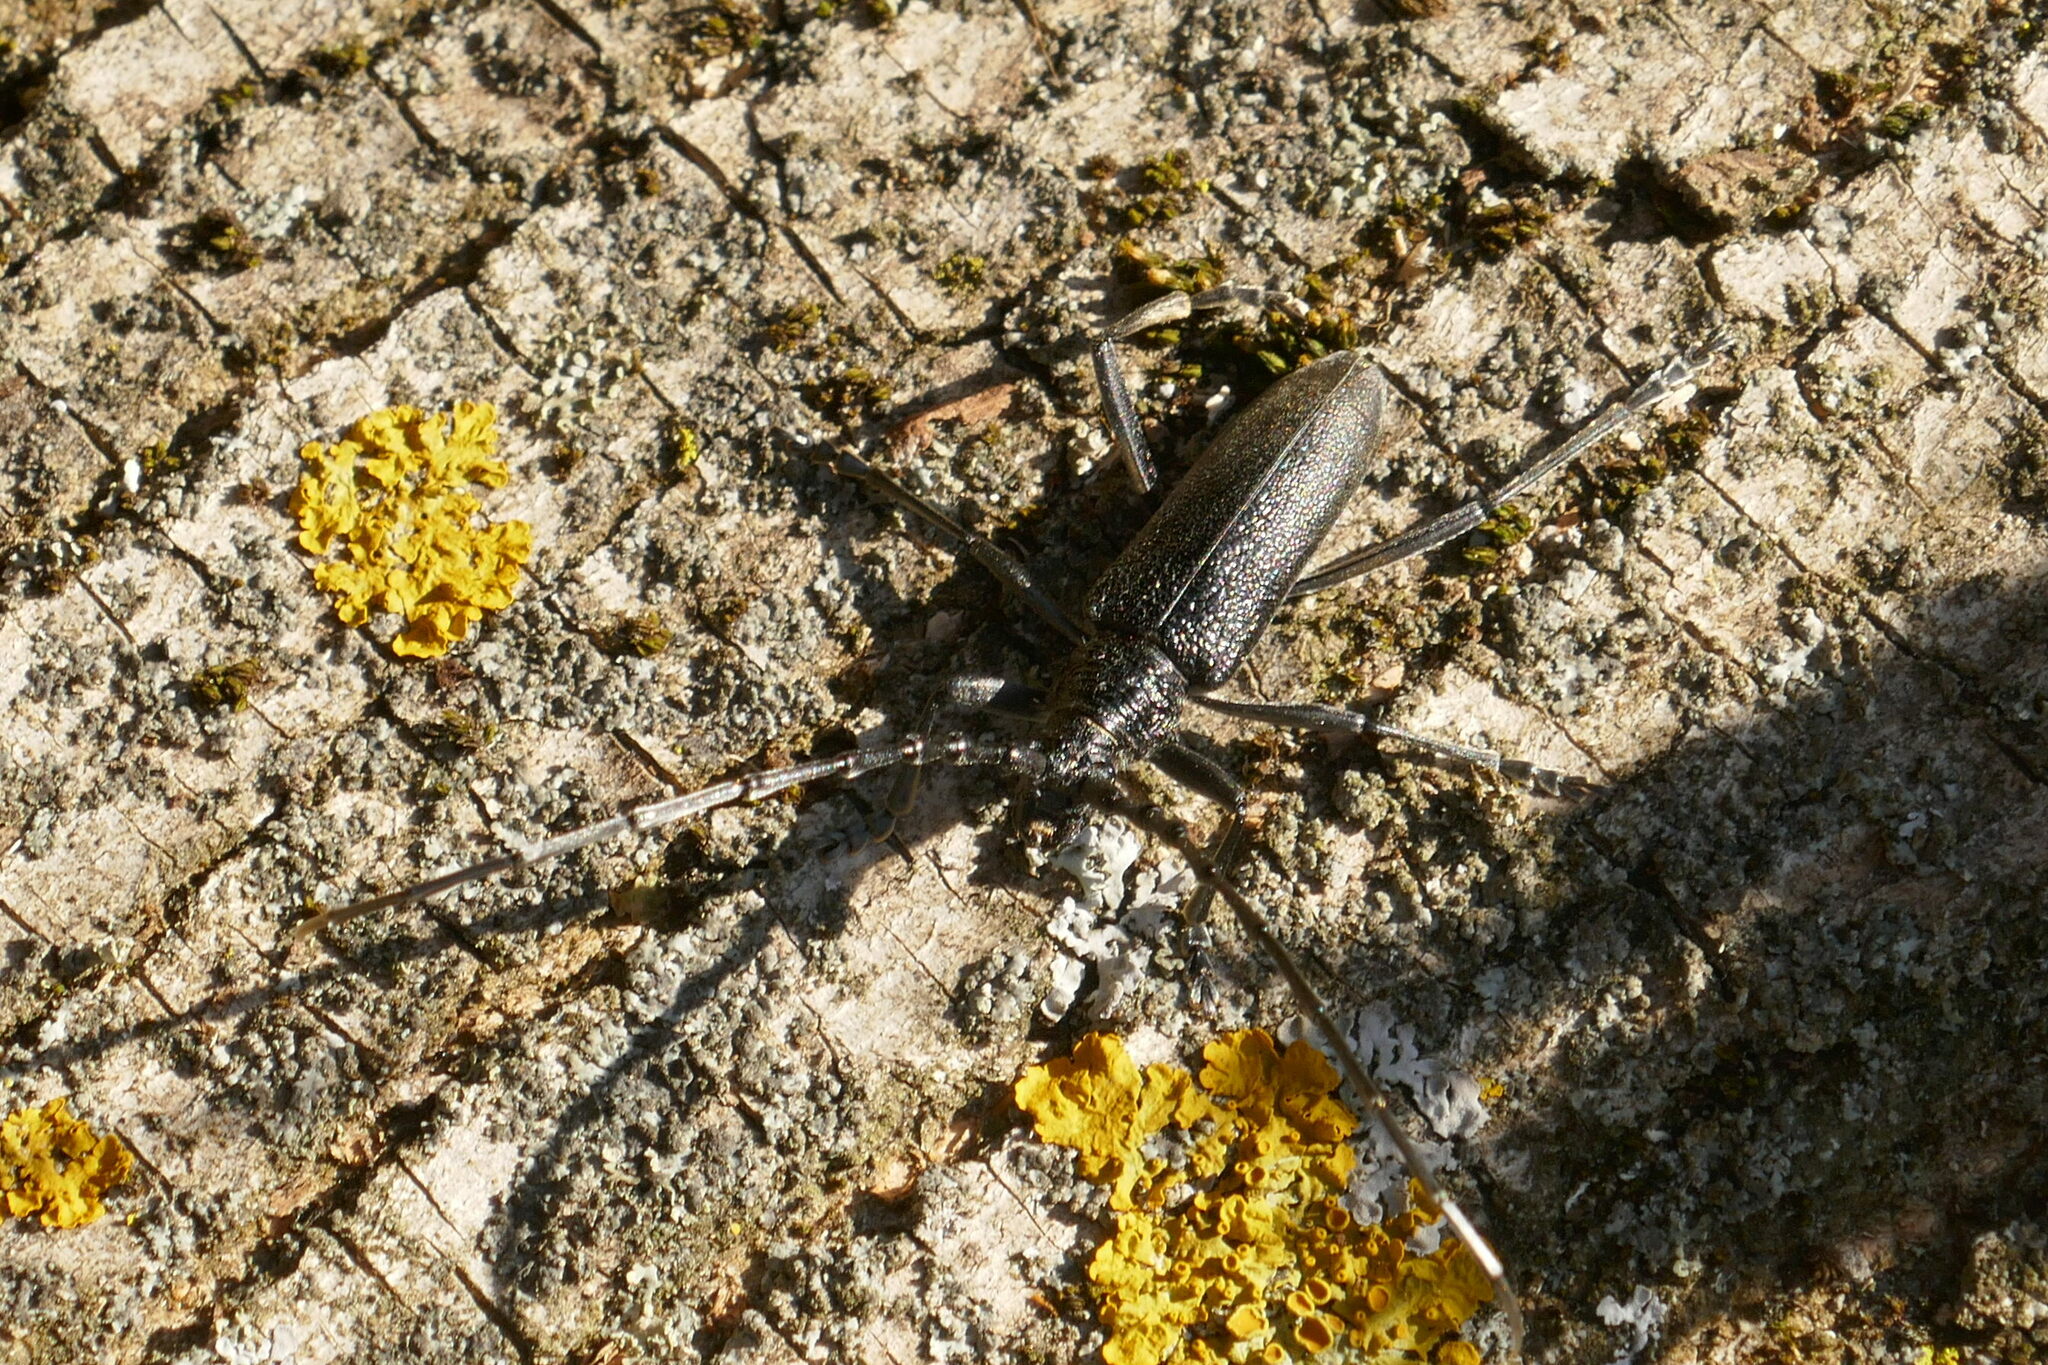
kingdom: Animalia
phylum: Arthropoda
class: Insecta
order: Coleoptera
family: Cerambycidae
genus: Cerambyx
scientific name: Cerambyx scopolii
